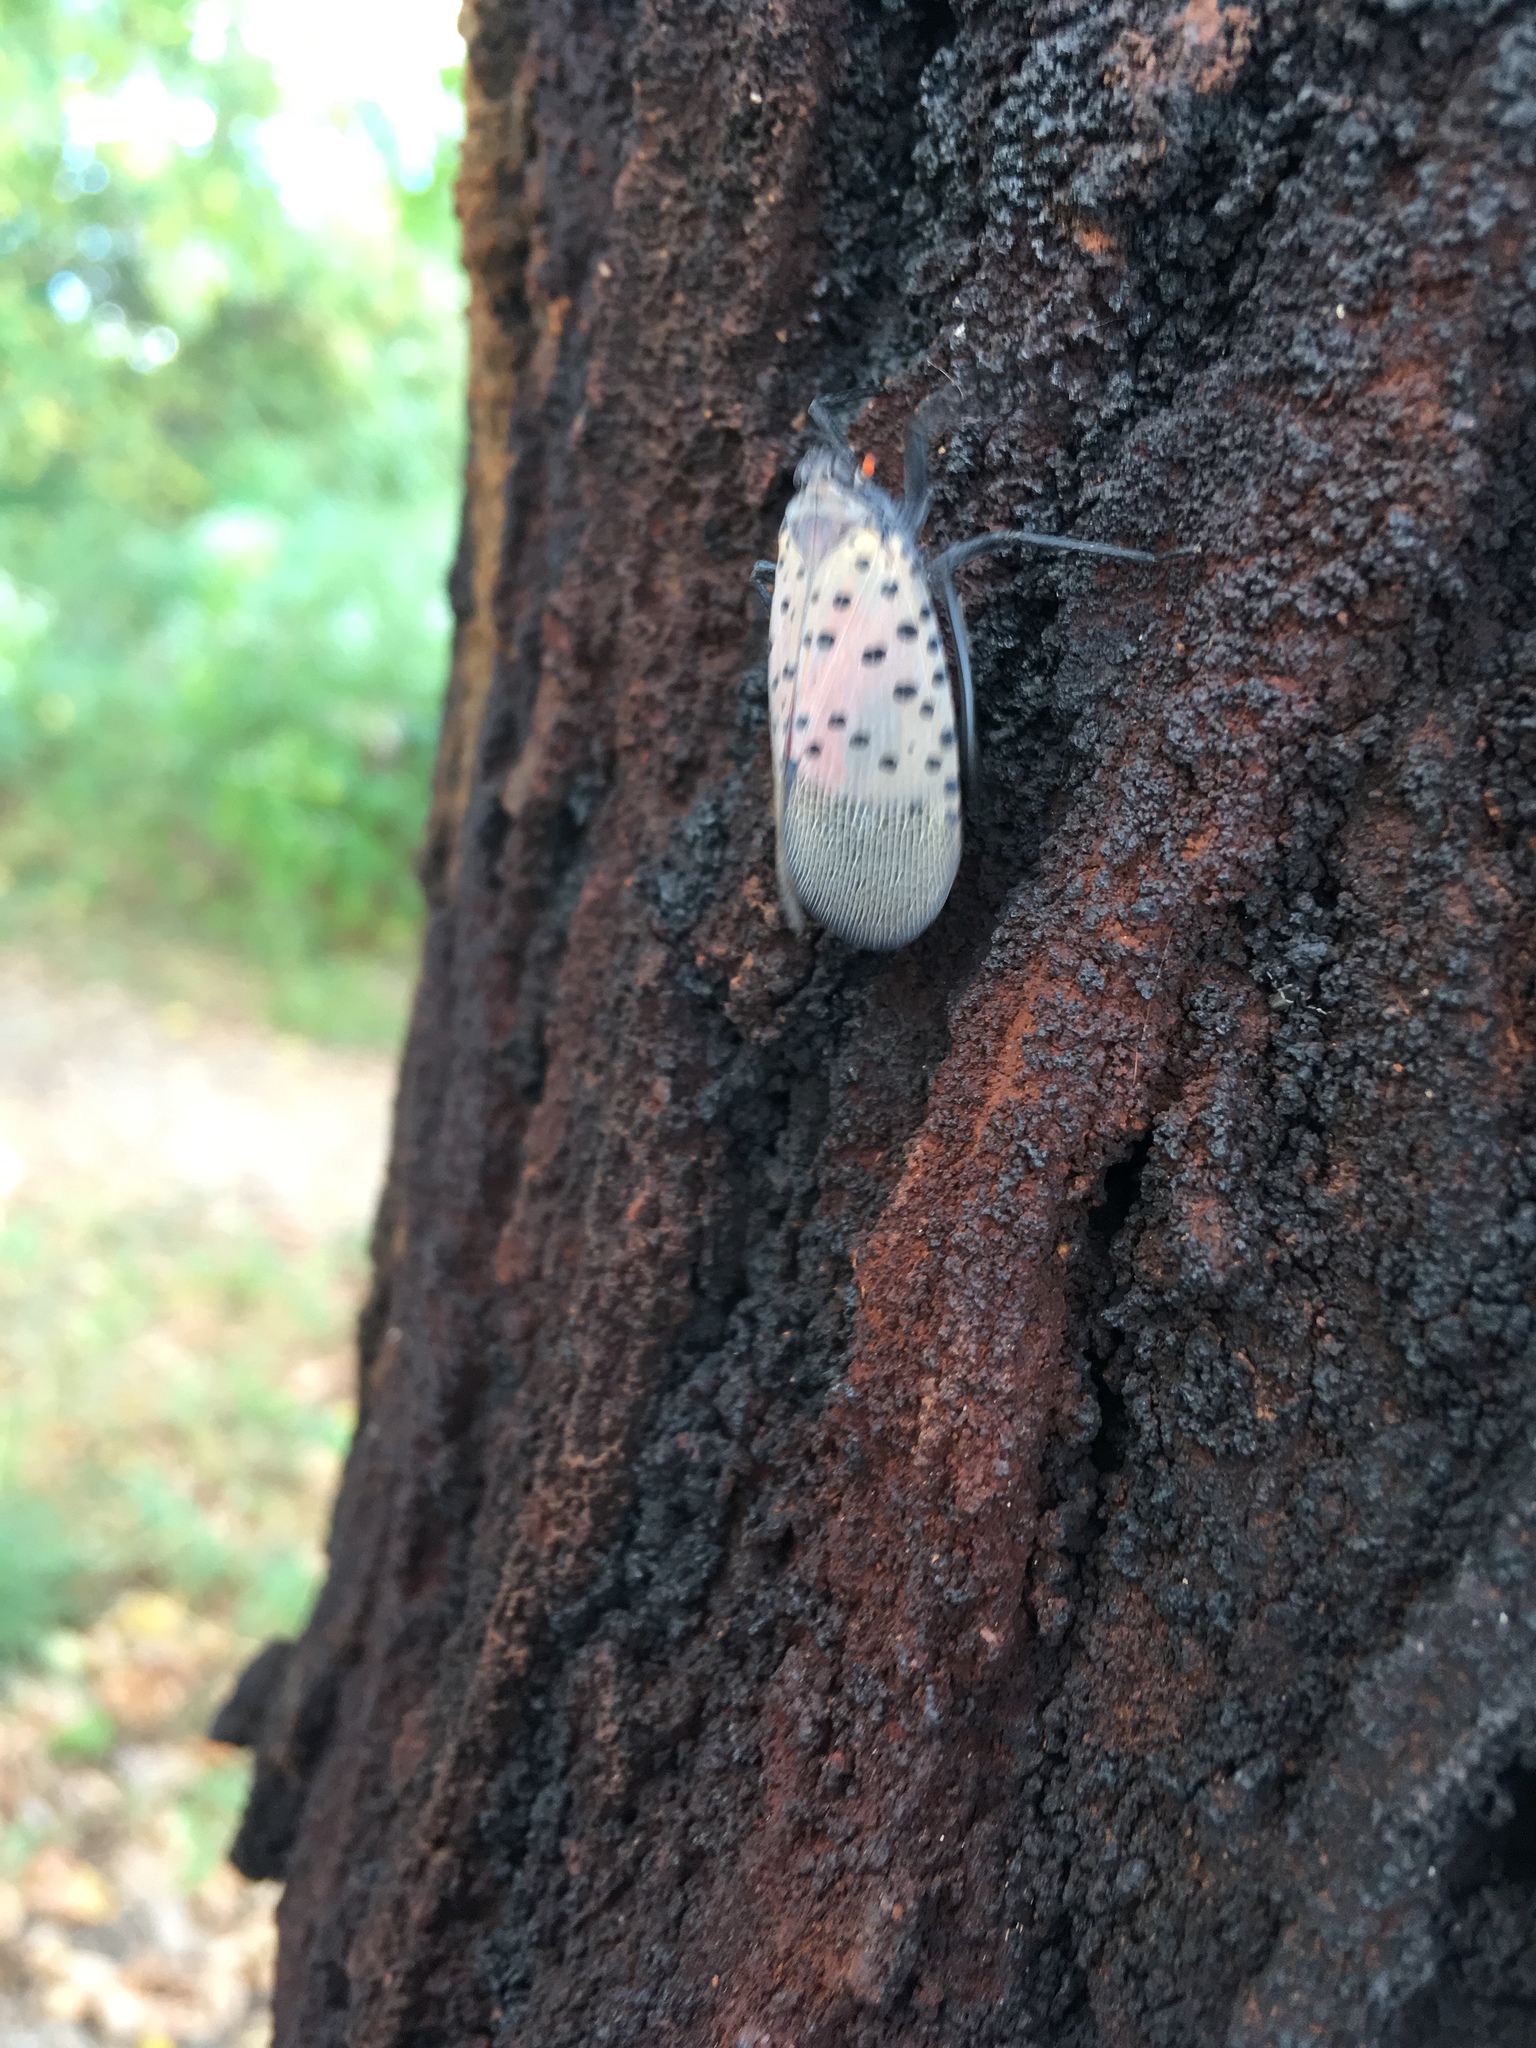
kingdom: Animalia
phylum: Arthropoda
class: Insecta
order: Hemiptera
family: Fulgoridae
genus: Lycorma
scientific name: Lycorma delicatula
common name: Spotted lanternfly
